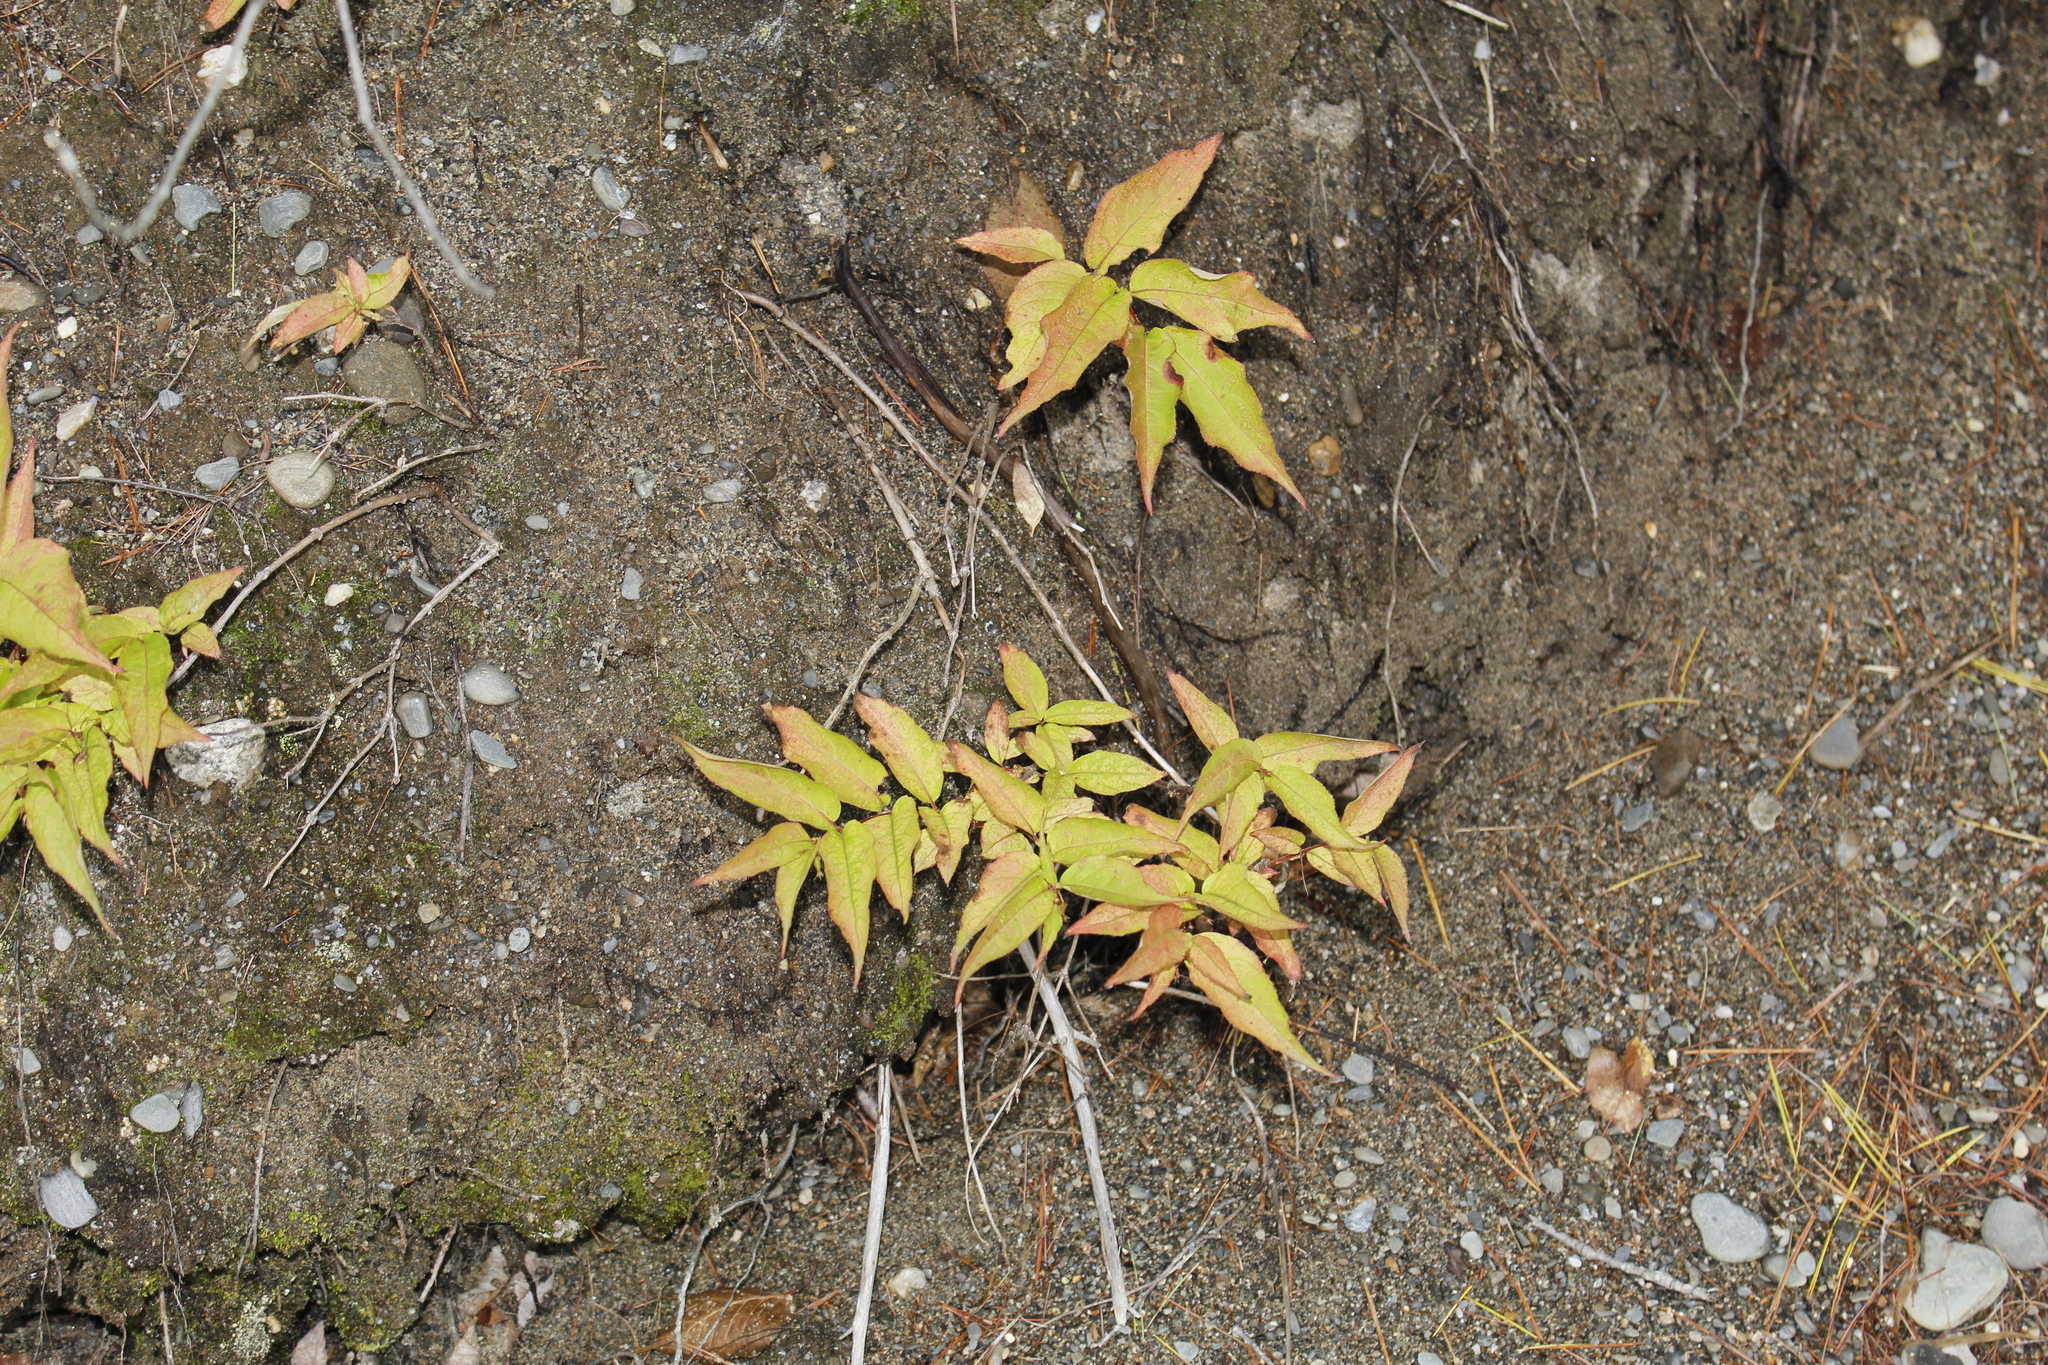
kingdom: Plantae
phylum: Tracheophyta
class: Magnoliopsida
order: Dipsacales
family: Caprifoliaceae
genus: Diervilla
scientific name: Diervilla lonicera
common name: Bush-honeysuckle
